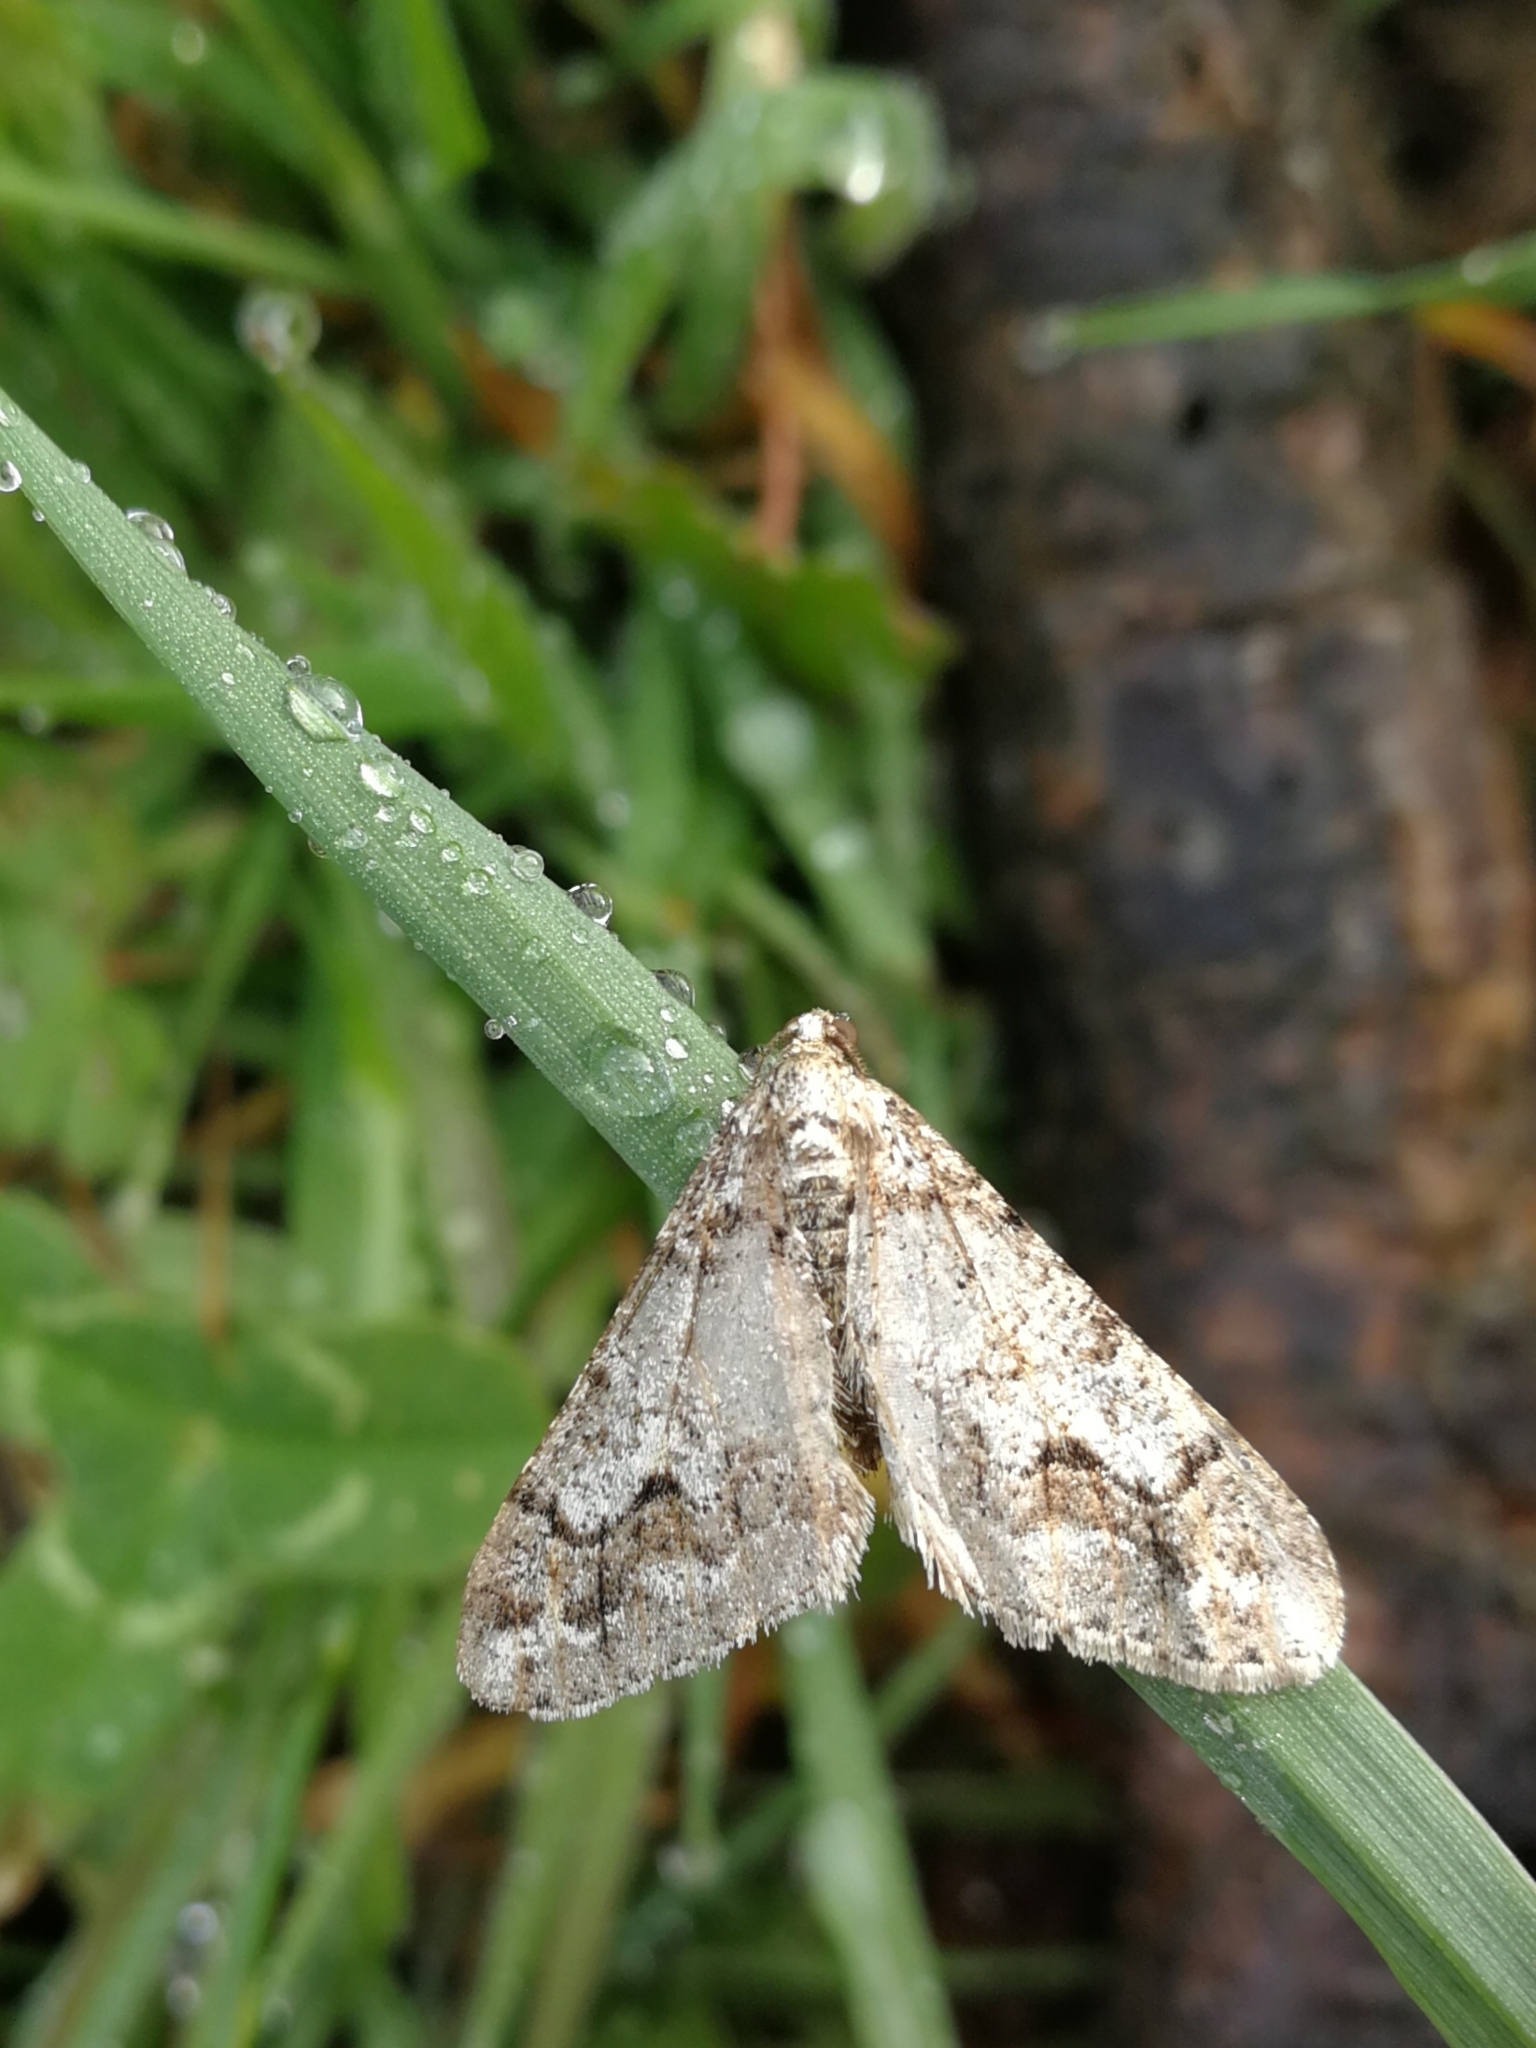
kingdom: Animalia
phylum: Arthropoda
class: Insecta
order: Lepidoptera
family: Geometridae
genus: Agriopis
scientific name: Agriopis leucophaearia
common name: Spring usher
